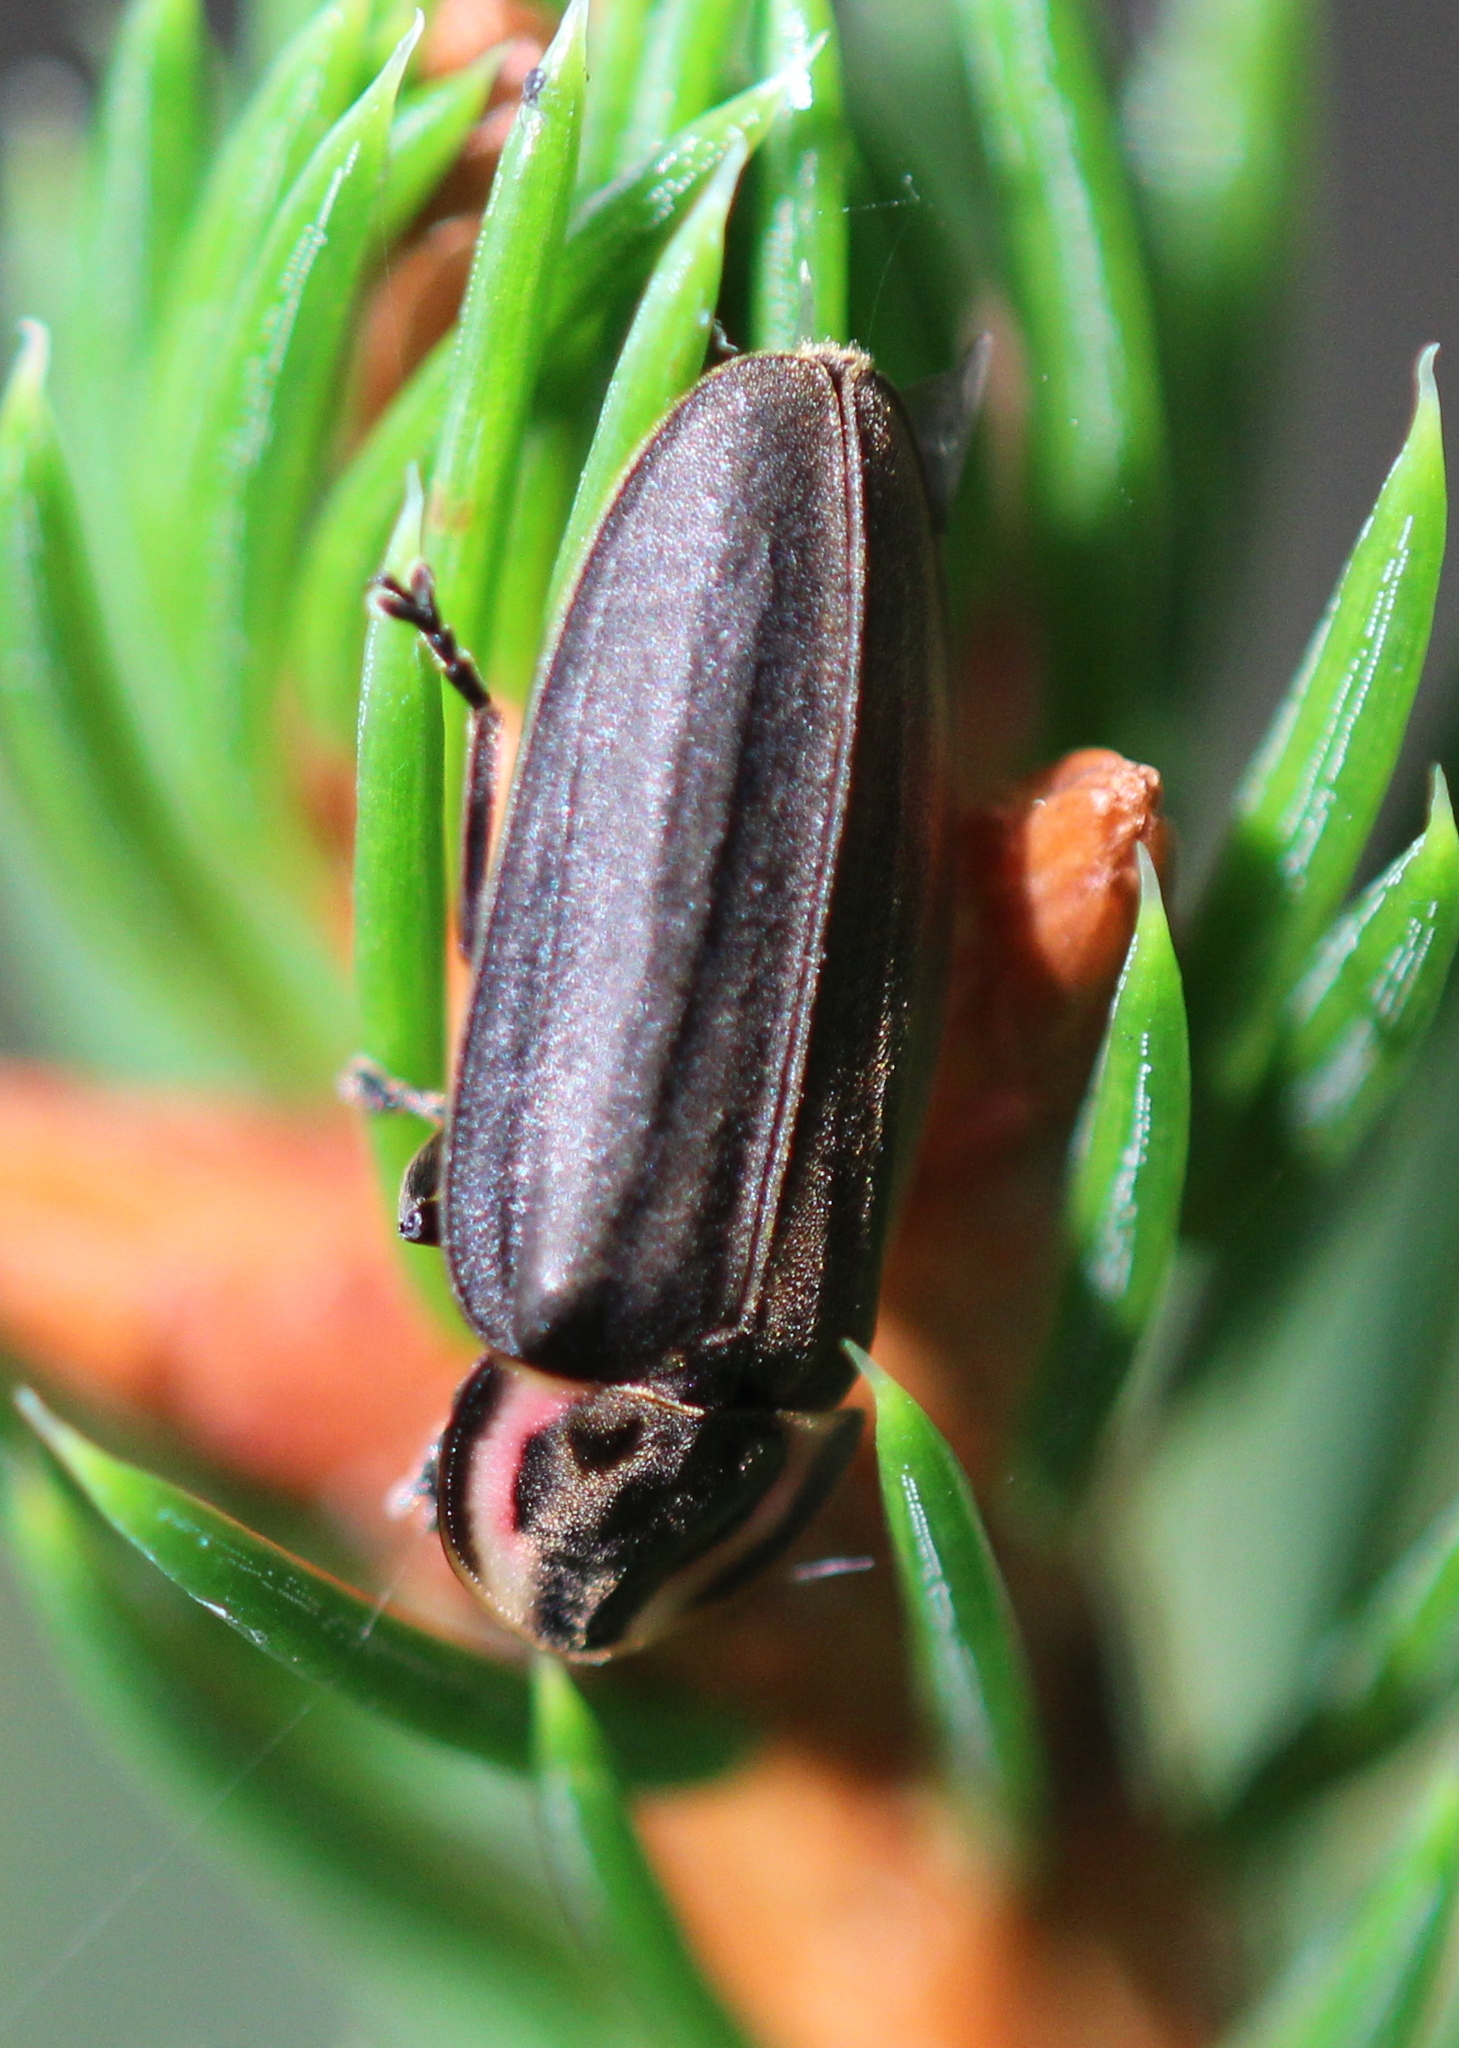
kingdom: Animalia
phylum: Arthropoda
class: Insecta
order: Coleoptera
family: Lampyridae
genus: Photinus
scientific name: Photinus corrusca
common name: Winter firefly
